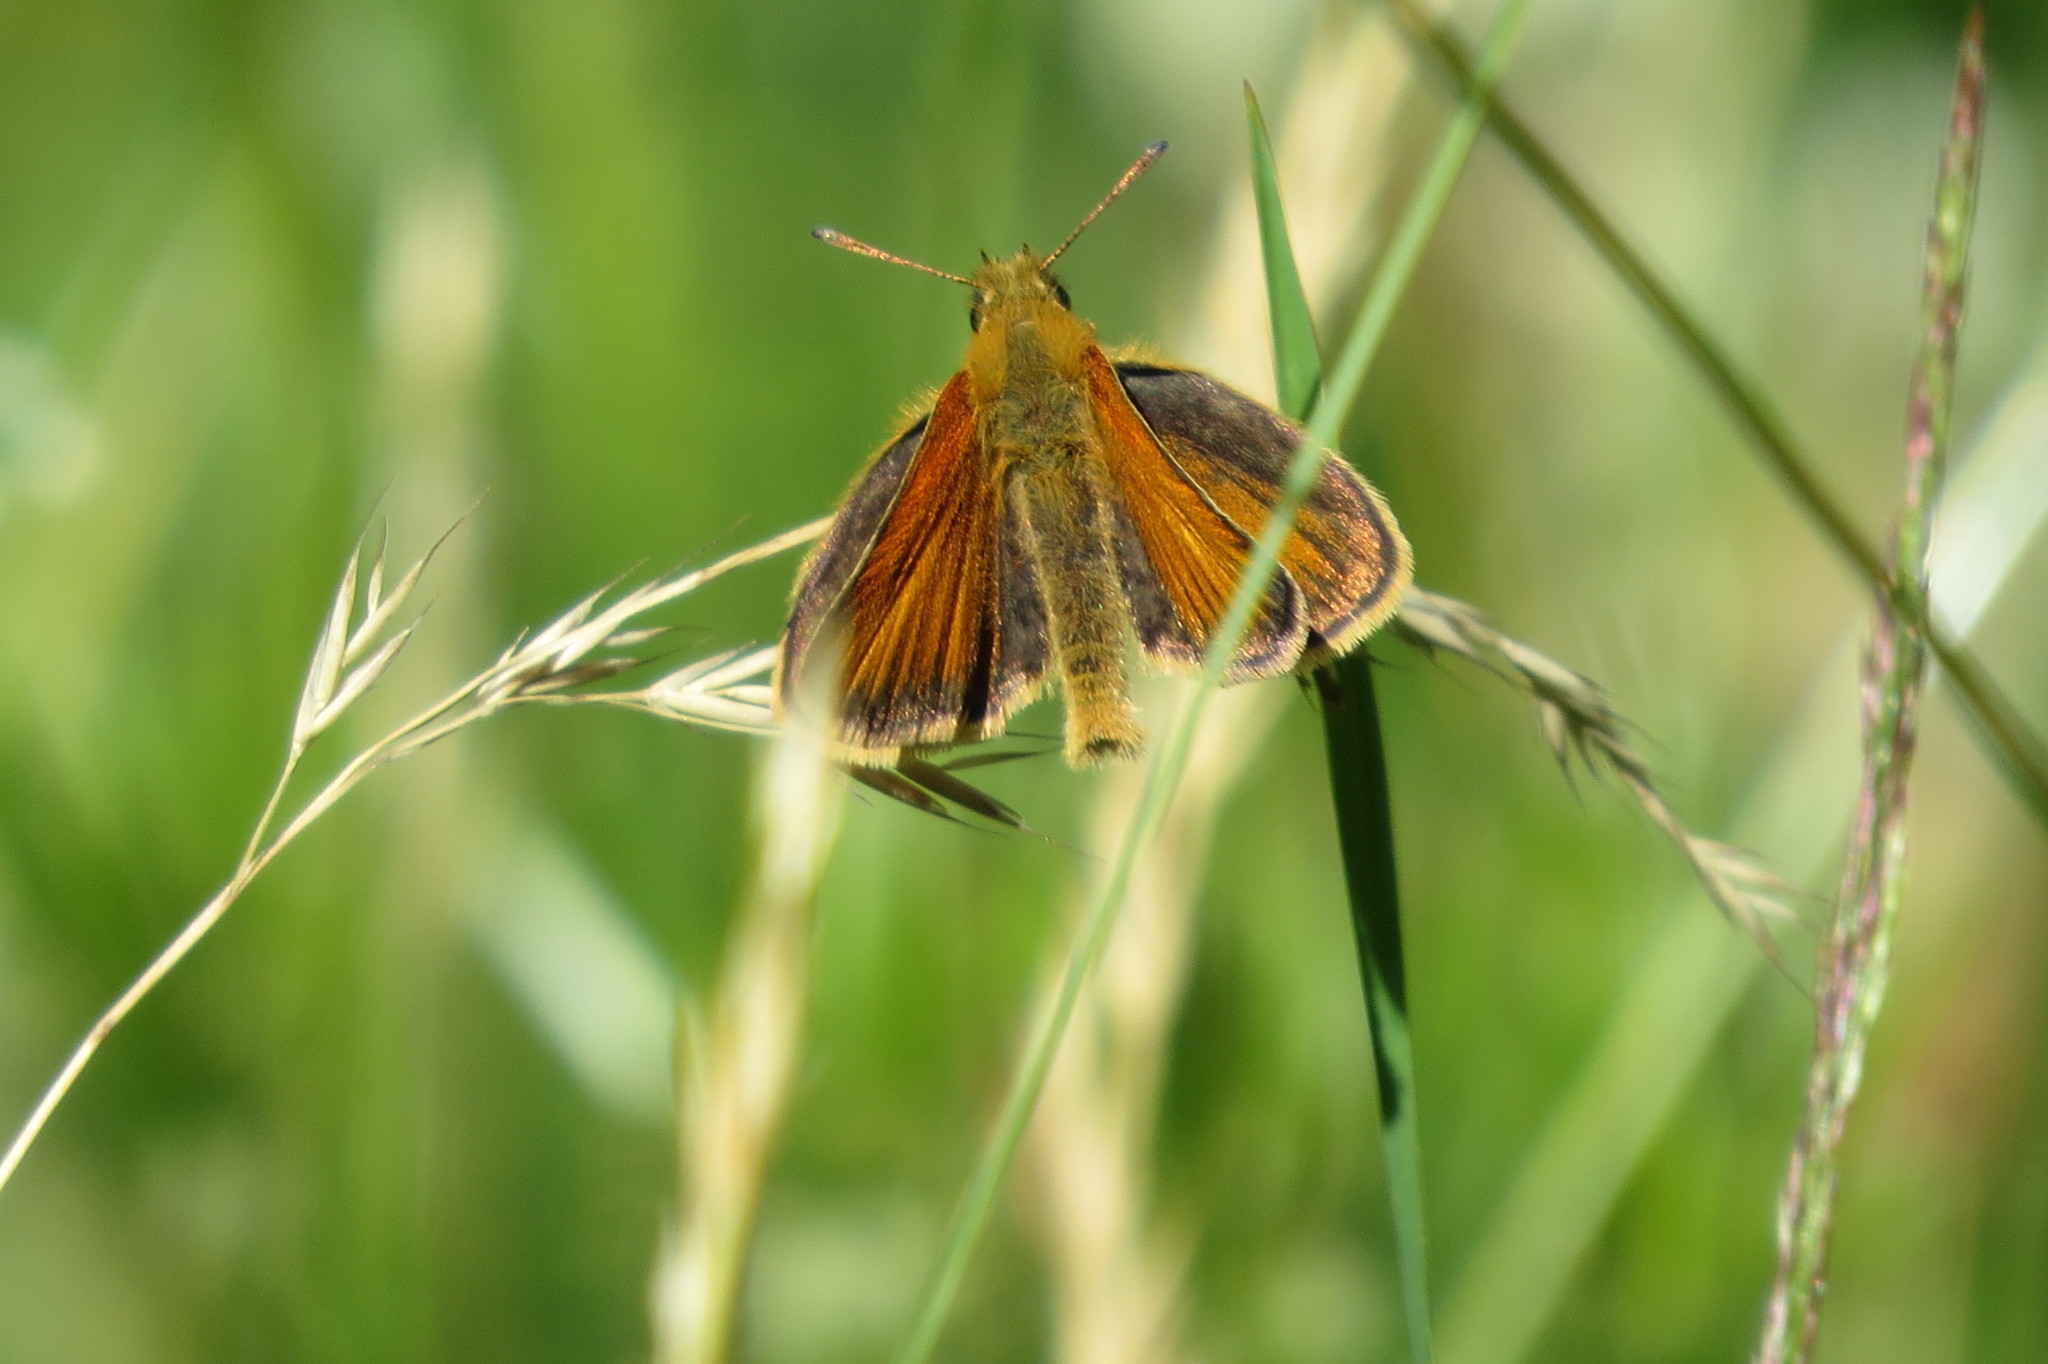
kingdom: Animalia
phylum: Arthropoda
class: Insecta
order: Lepidoptera
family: Hesperiidae
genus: Thymelicus
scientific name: Thymelicus lineola
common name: Essex skipper
